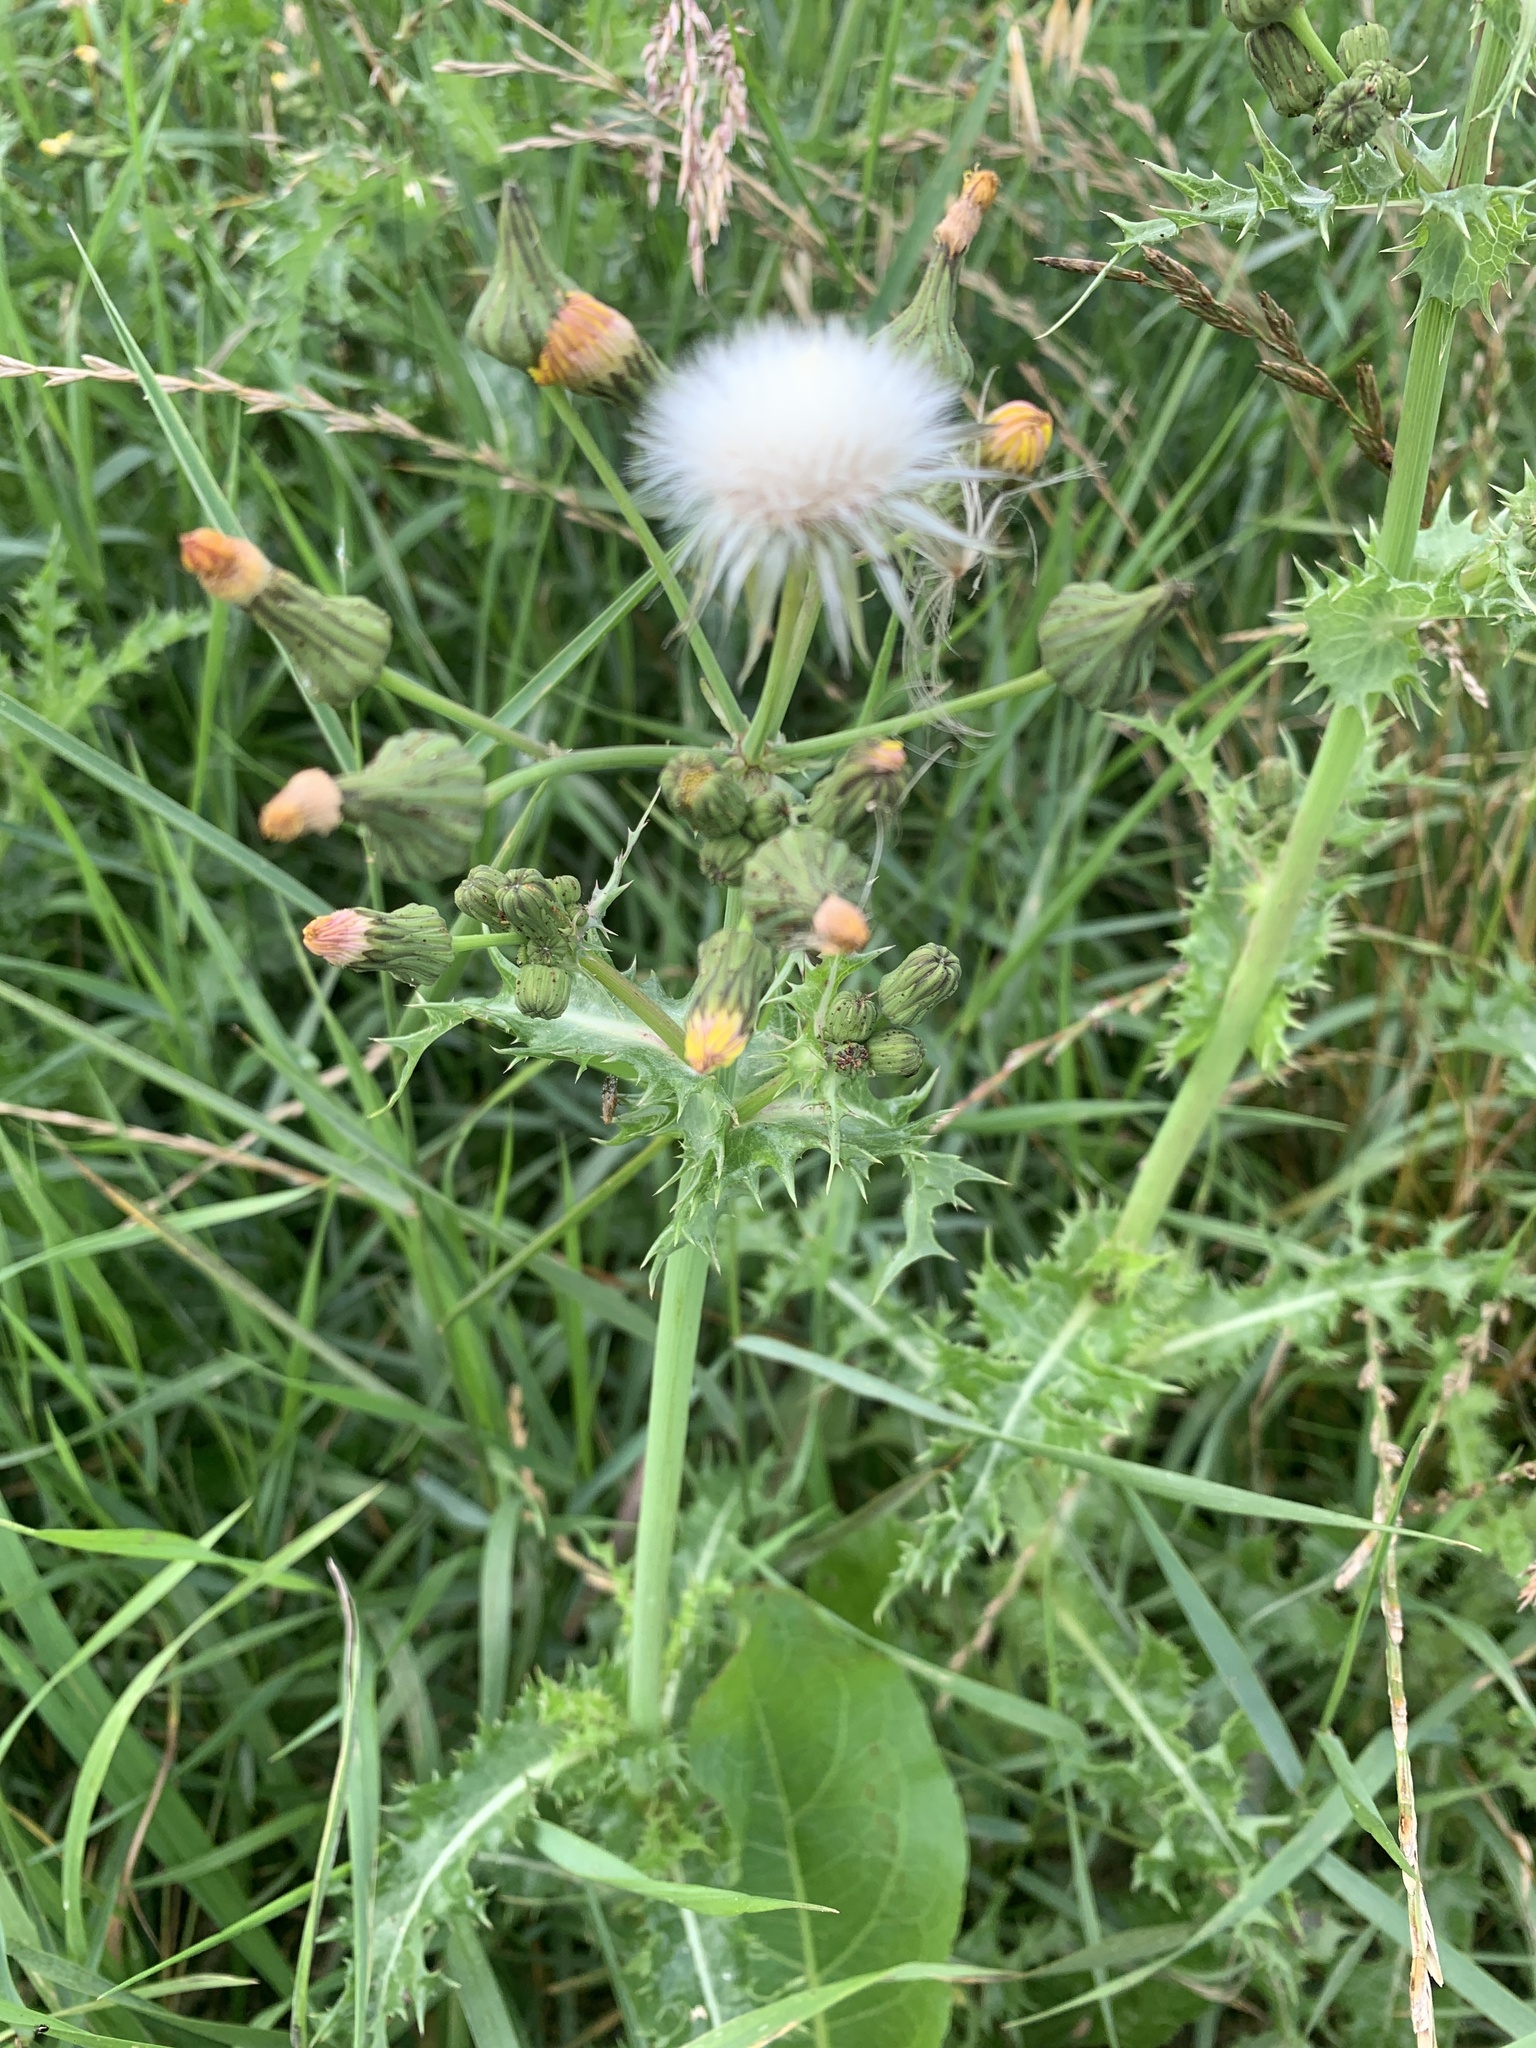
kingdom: Plantae
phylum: Tracheophyta
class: Magnoliopsida
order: Asterales
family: Asteraceae
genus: Sonchus
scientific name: Sonchus asper
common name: Prickly sow-thistle
